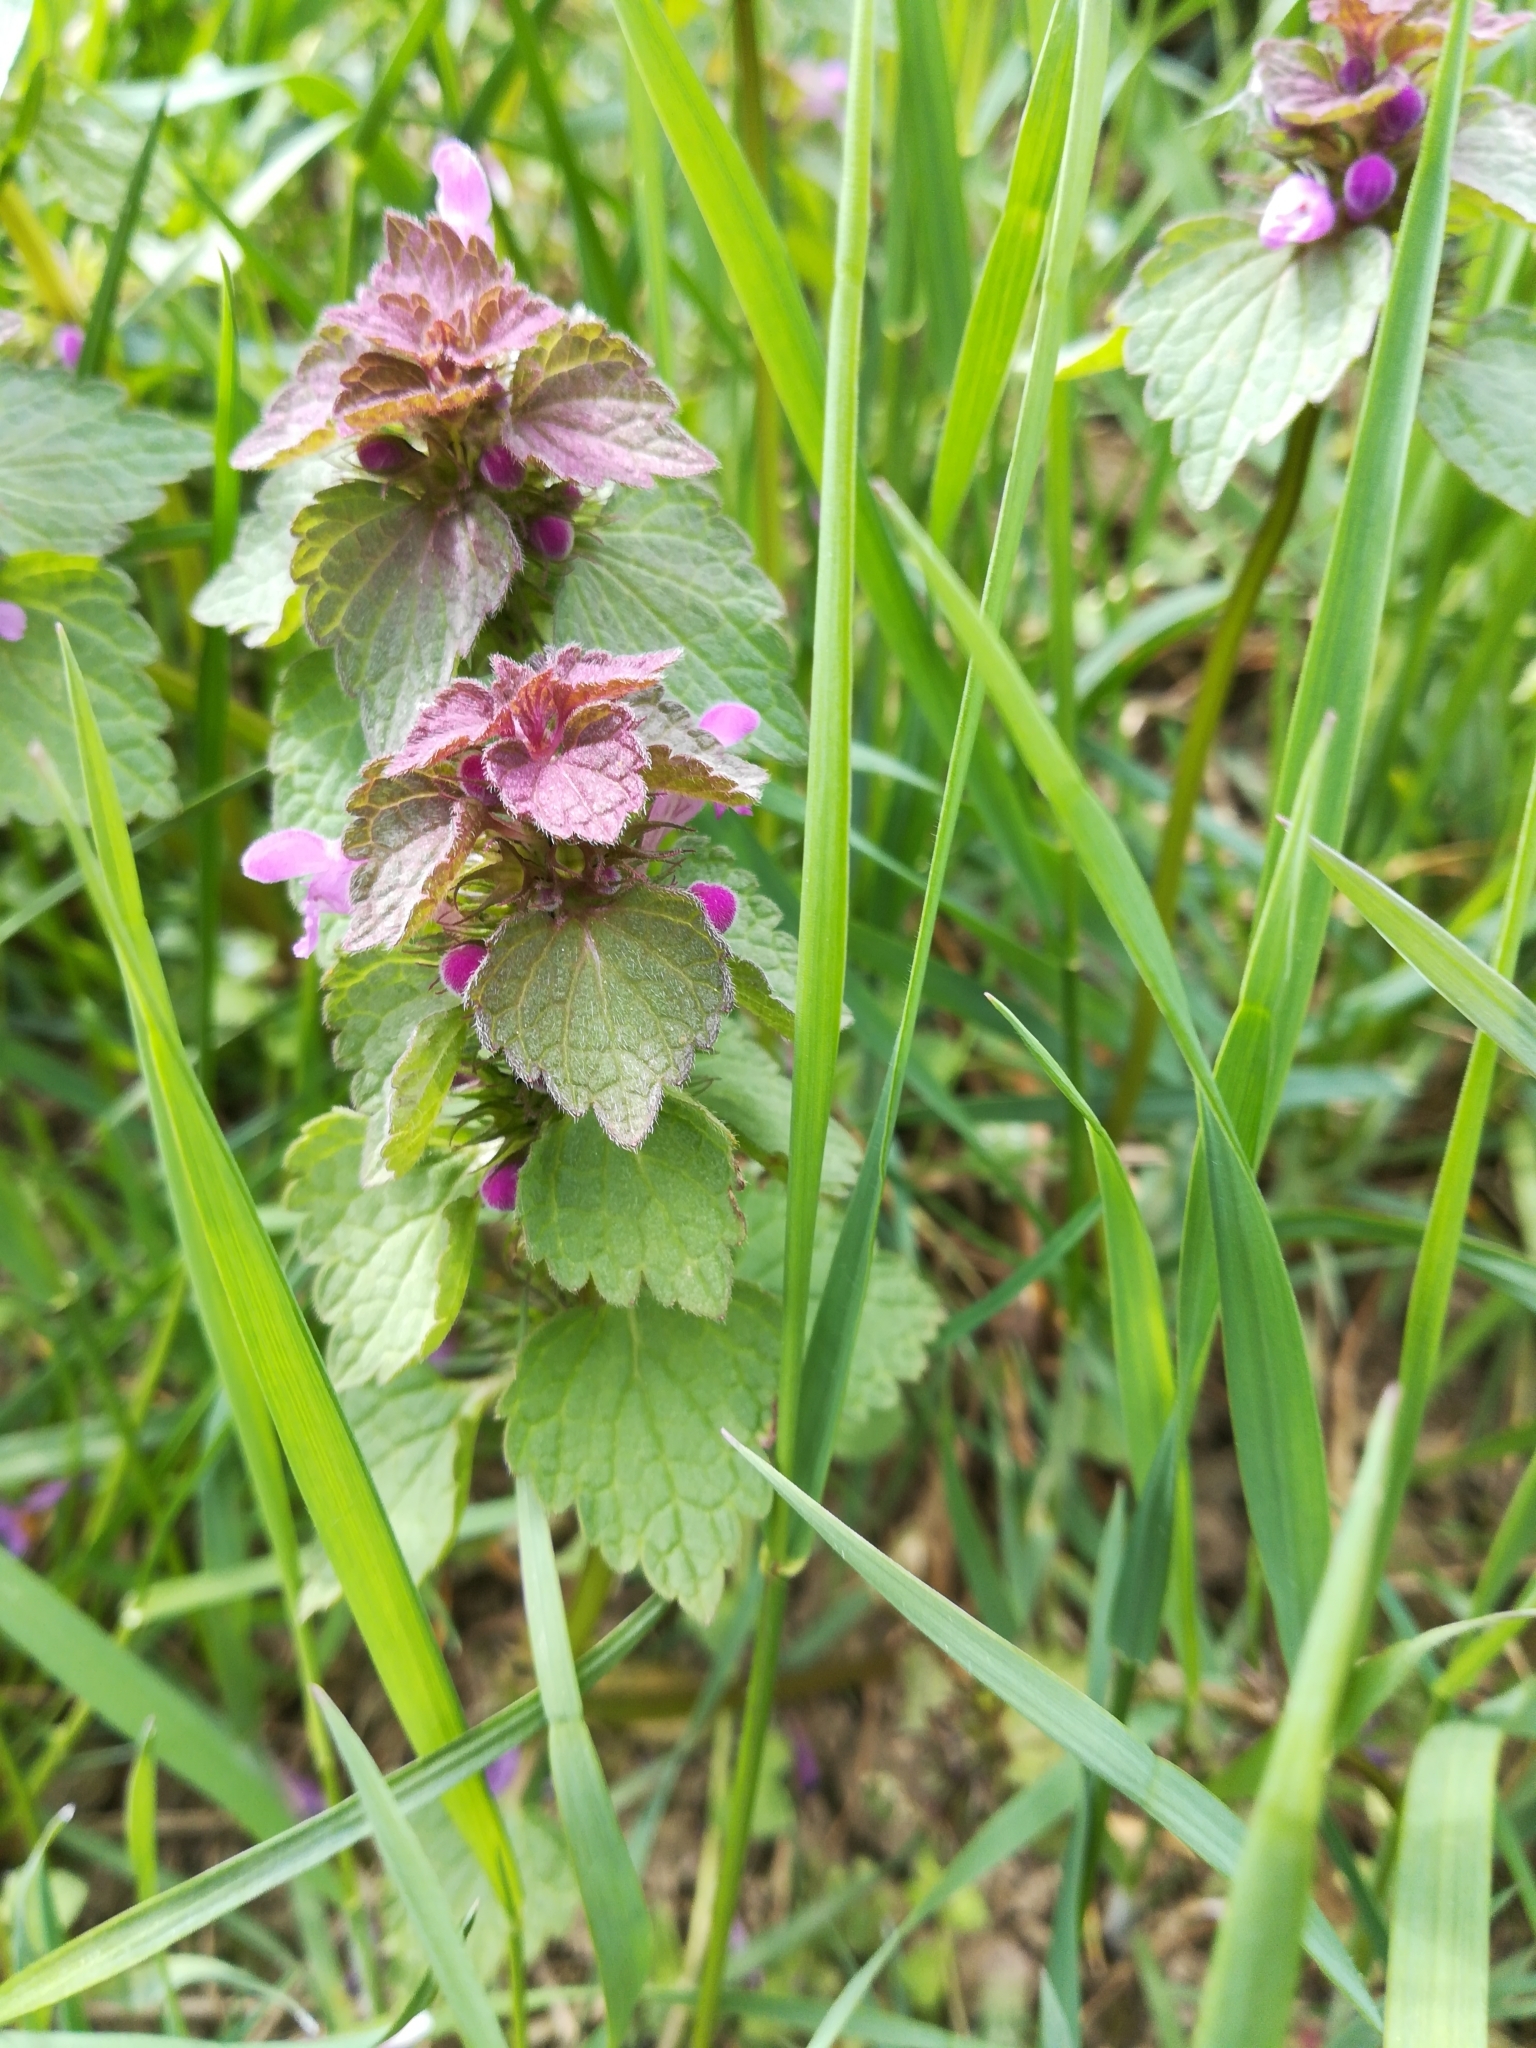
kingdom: Plantae
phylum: Tracheophyta
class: Magnoliopsida
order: Lamiales
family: Lamiaceae
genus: Lamium
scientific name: Lamium purpureum
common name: Red dead-nettle
